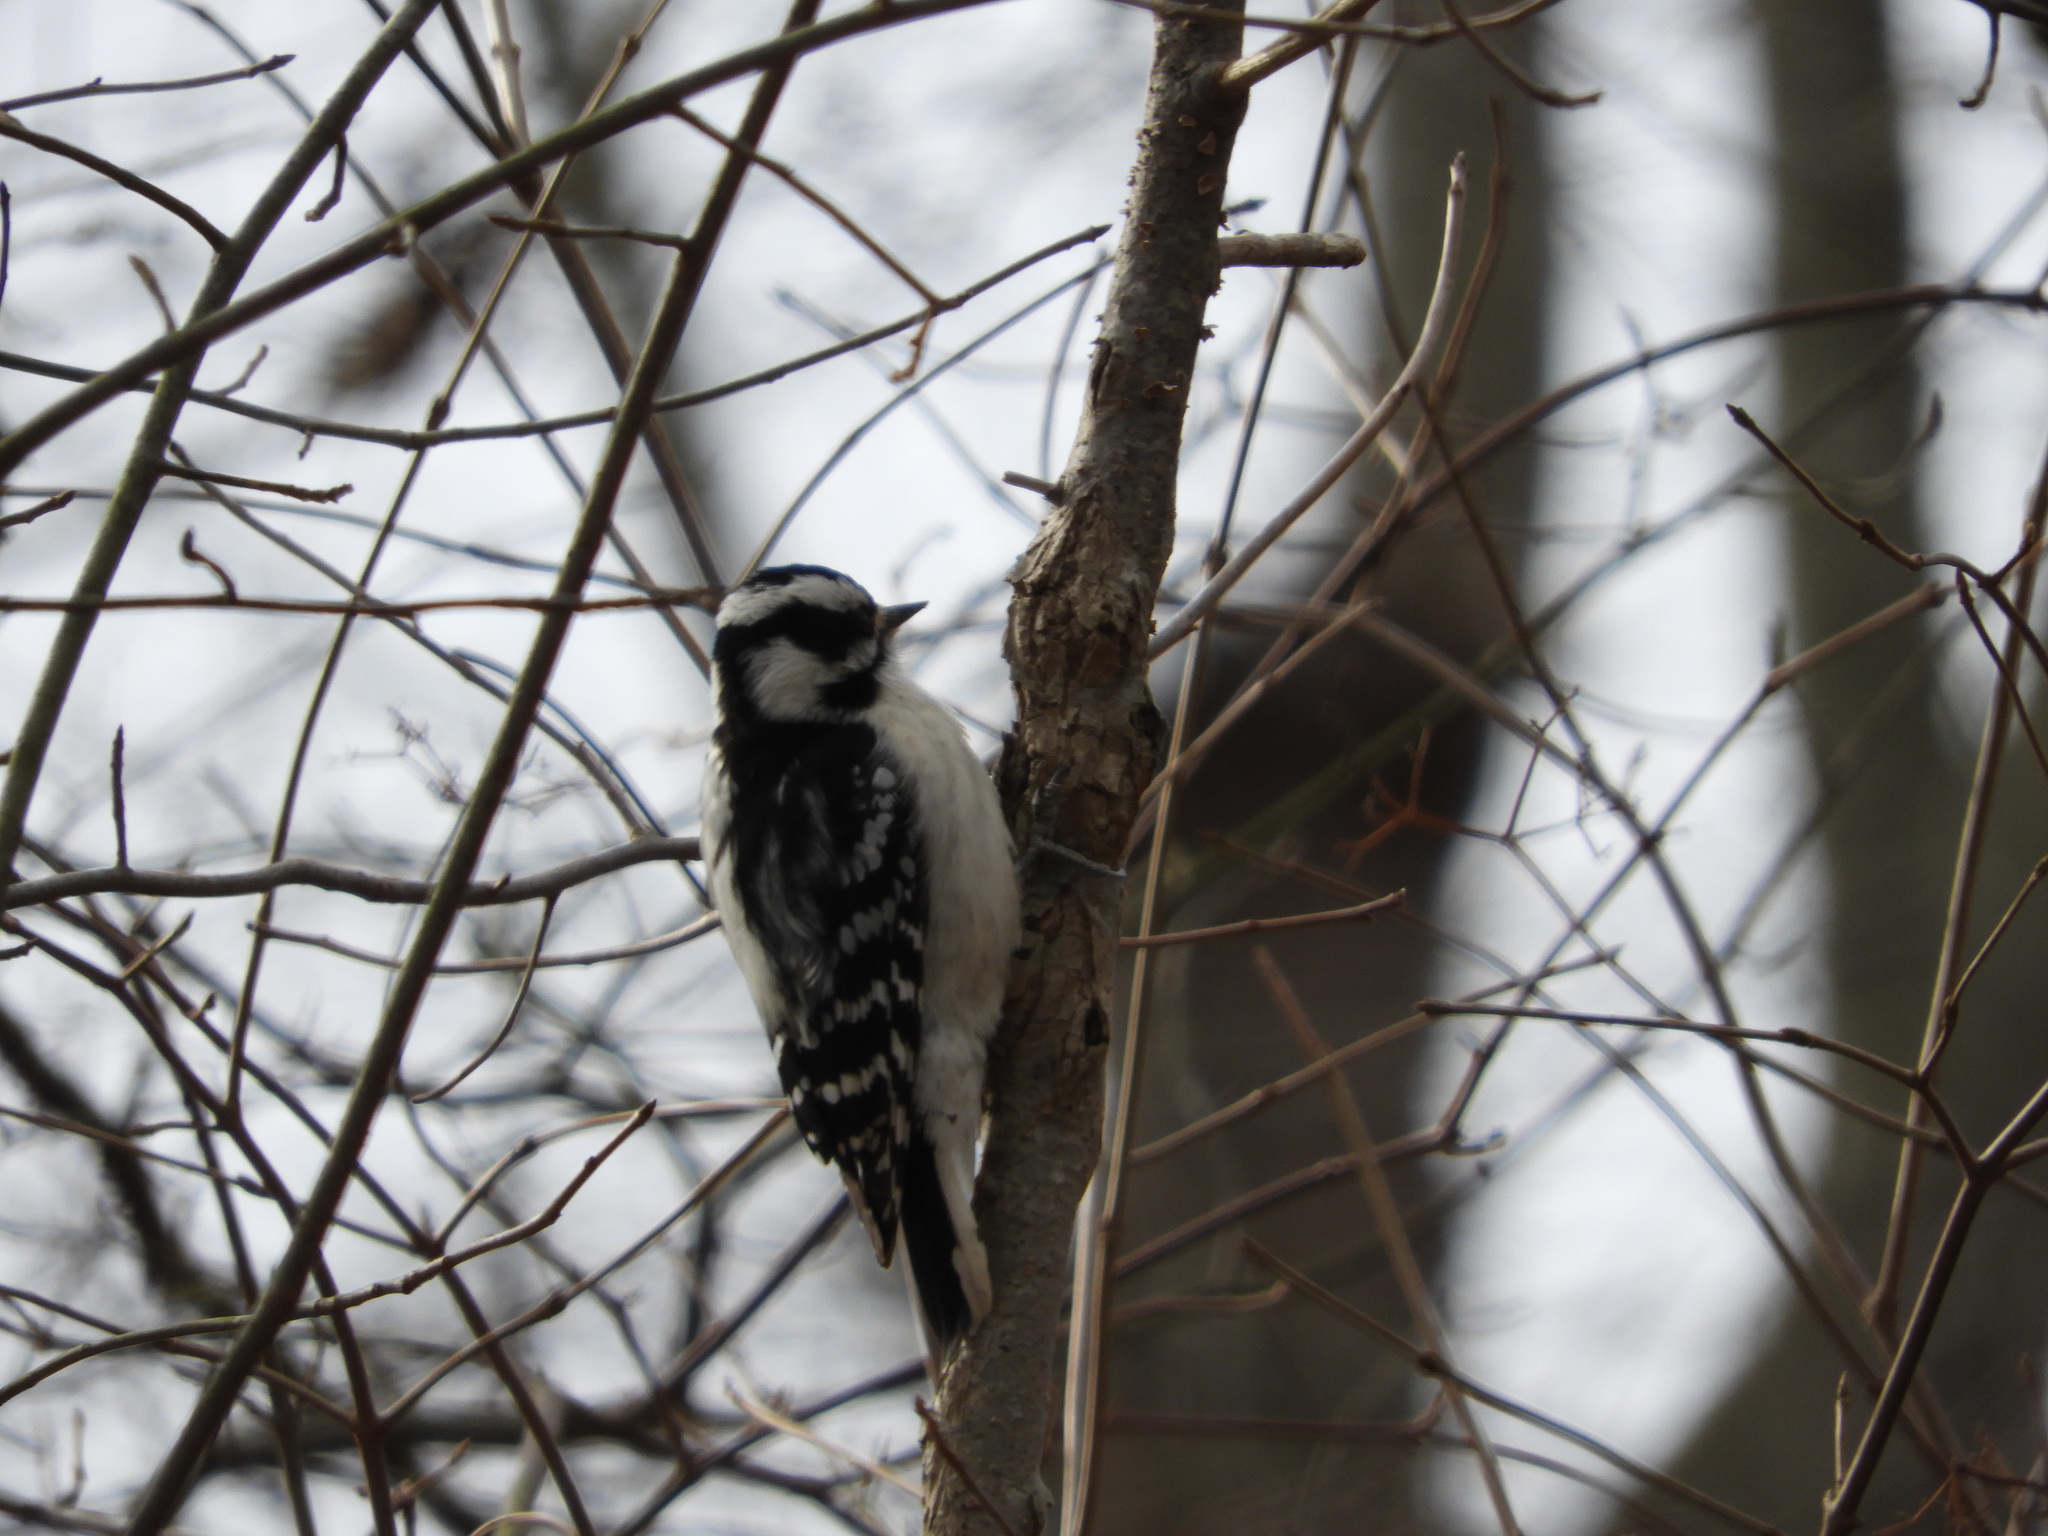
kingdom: Animalia
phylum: Chordata
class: Aves
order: Piciformes
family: Picidae
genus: Dryobates
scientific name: Dryobates pubescens
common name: Downy woodpecker
